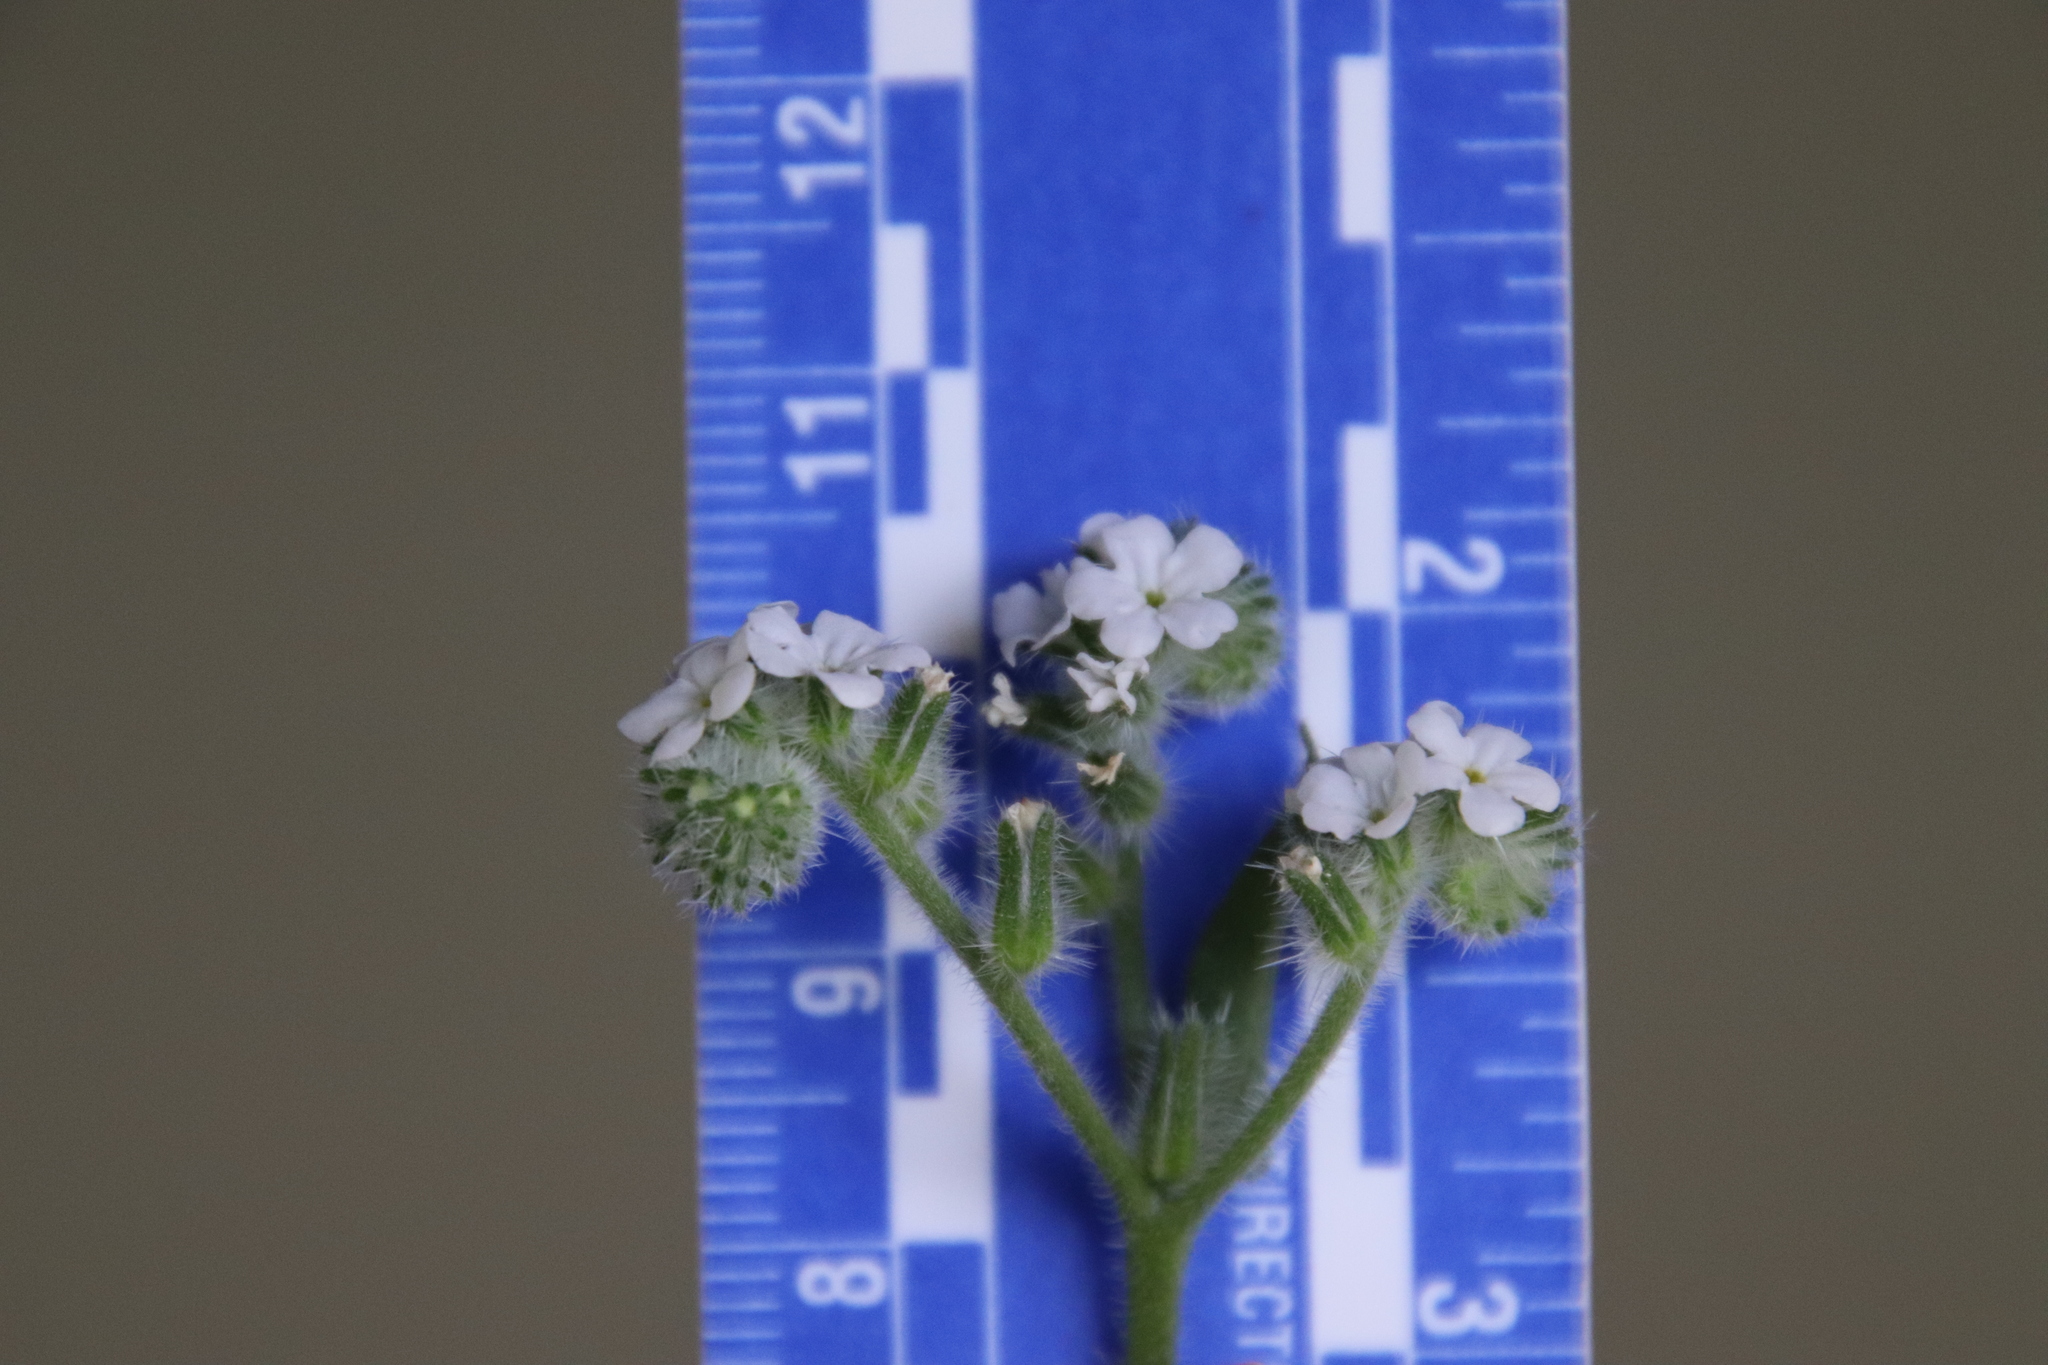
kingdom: Plantae
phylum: Tracheophyta
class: Magnoliopsida
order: Boraginales
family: Boraginaceae
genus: Cryptantha
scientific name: Cryptantha intermedia
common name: Clearwater cryptantha
